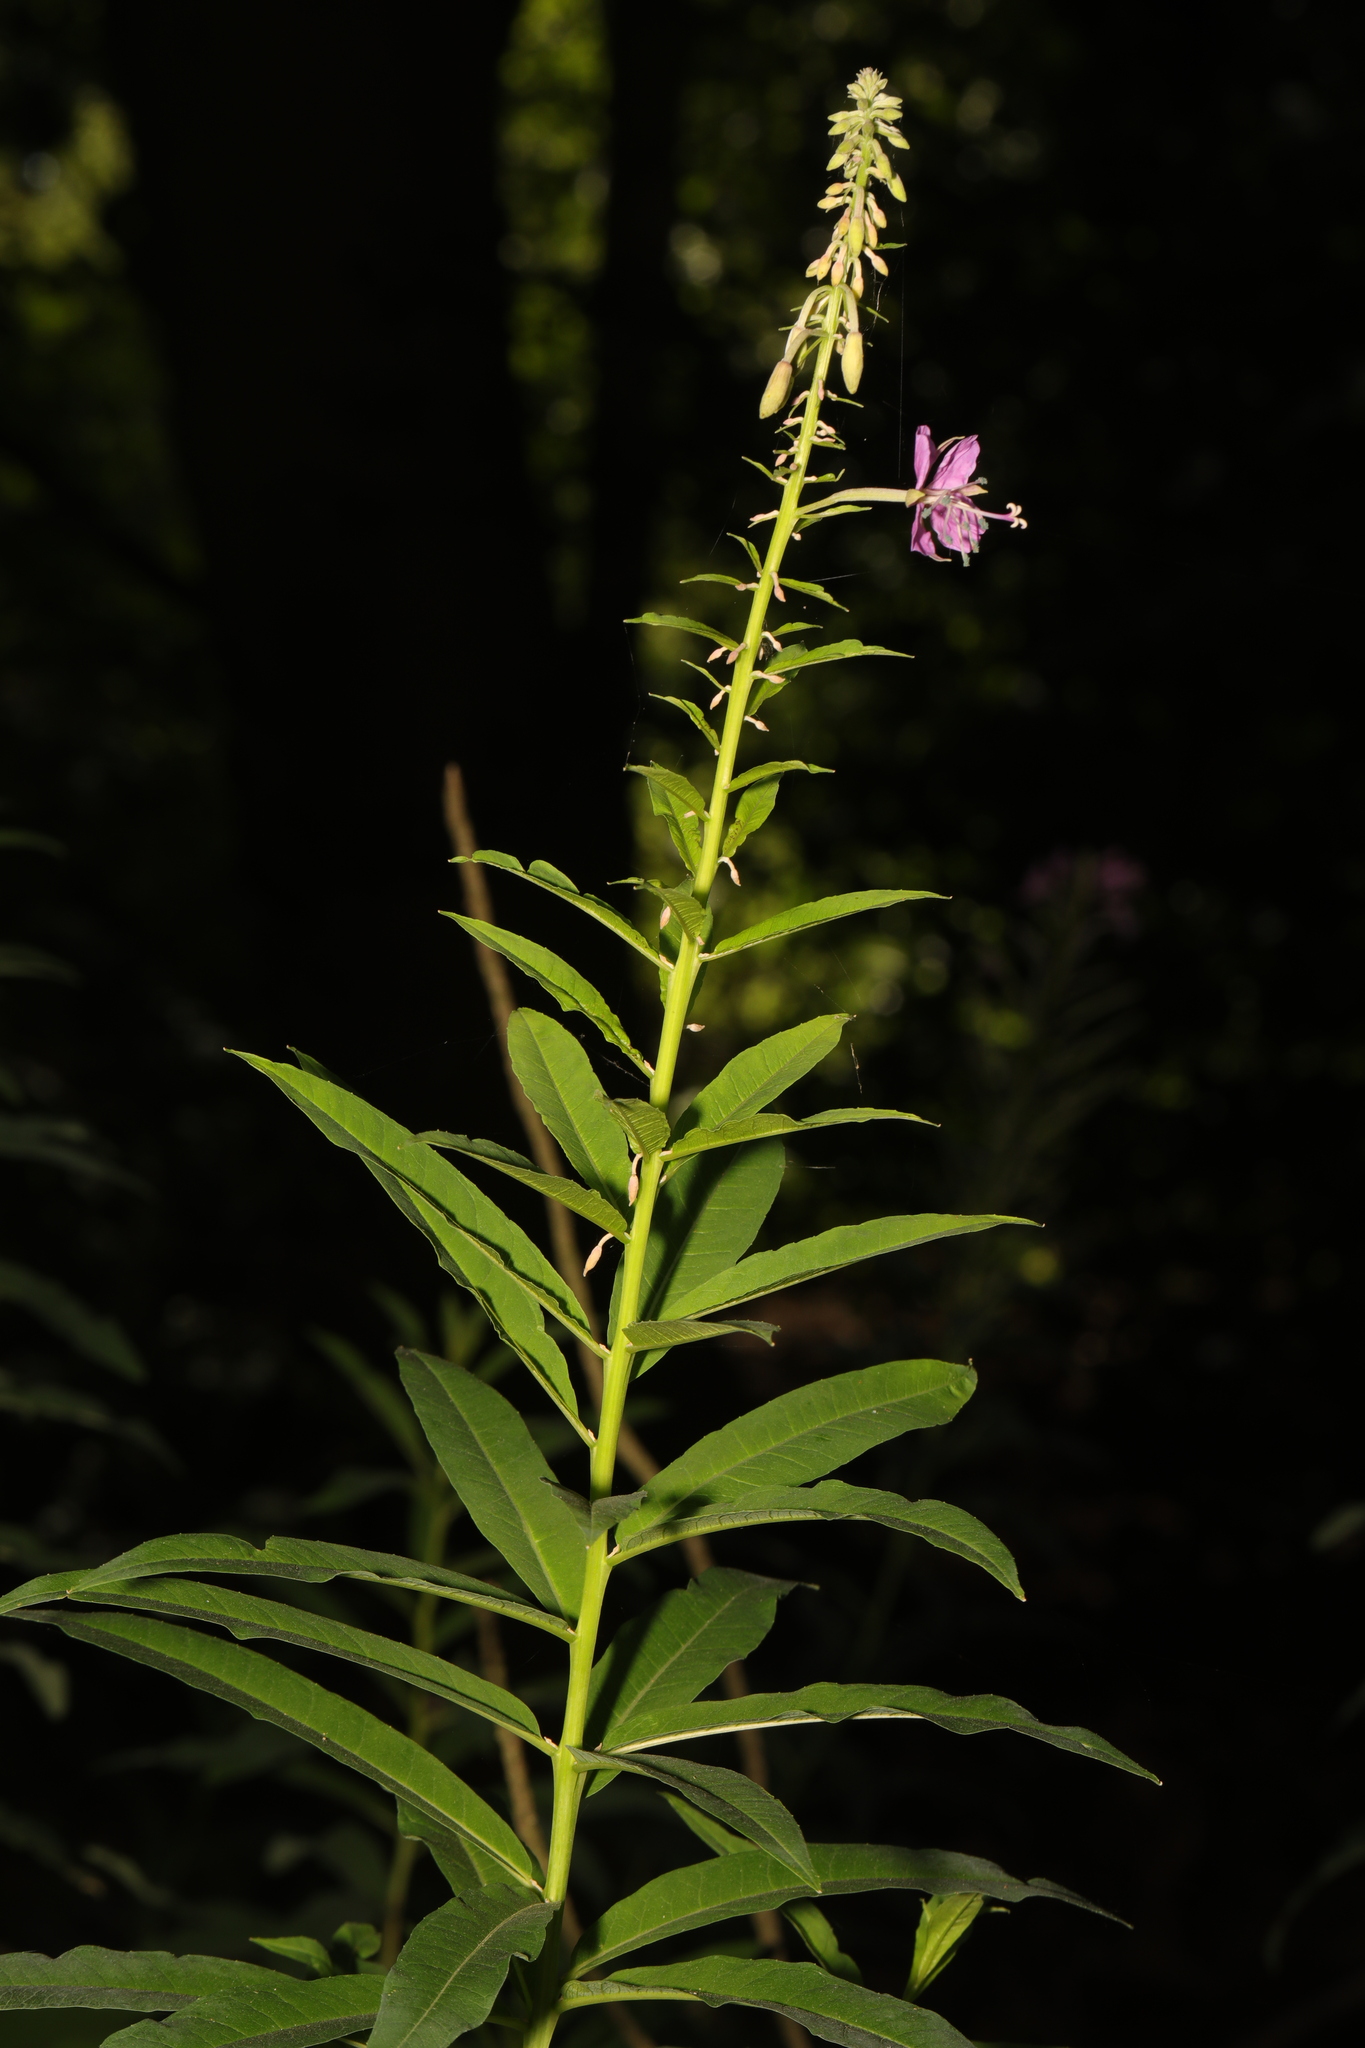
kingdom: Plantae
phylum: Tracheophyta
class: Magnoliopsida
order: Myrtales
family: Onagraceae
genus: Chamaenerion
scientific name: Chamaenerion angustifolium
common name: Fireweed
